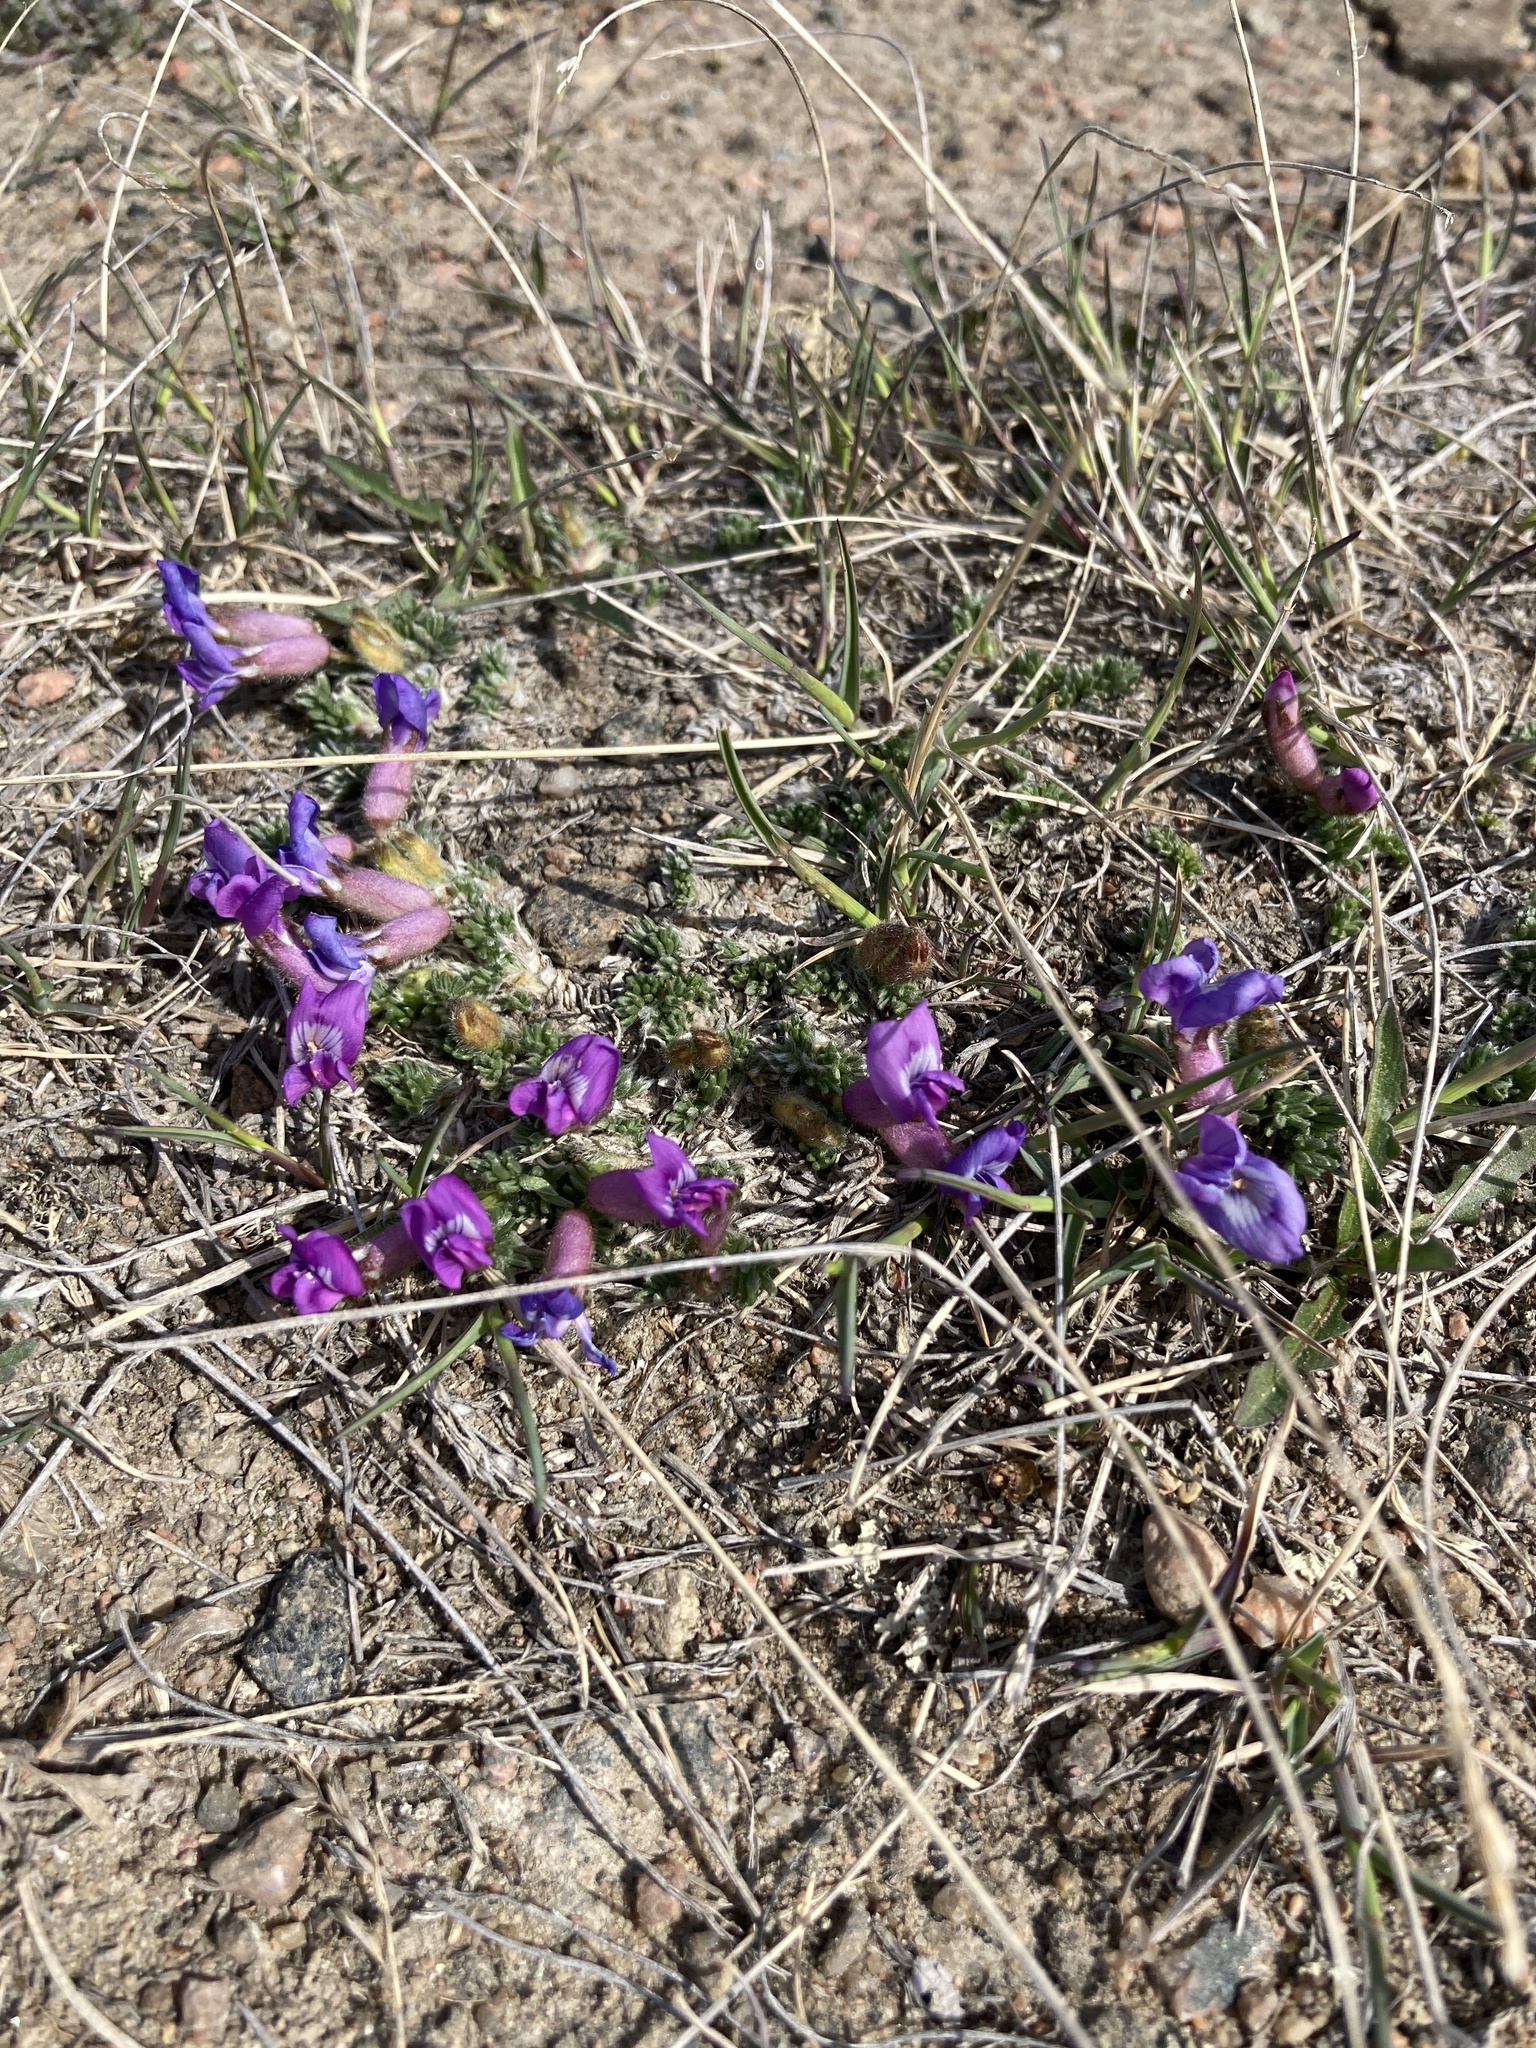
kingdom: Plantae
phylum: Tracheophyta
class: Magnoliopsida
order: Fabales
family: Fabaceae
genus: Oxytropis
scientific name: Oxytropis podocarpa
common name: Gray's oxytrope
